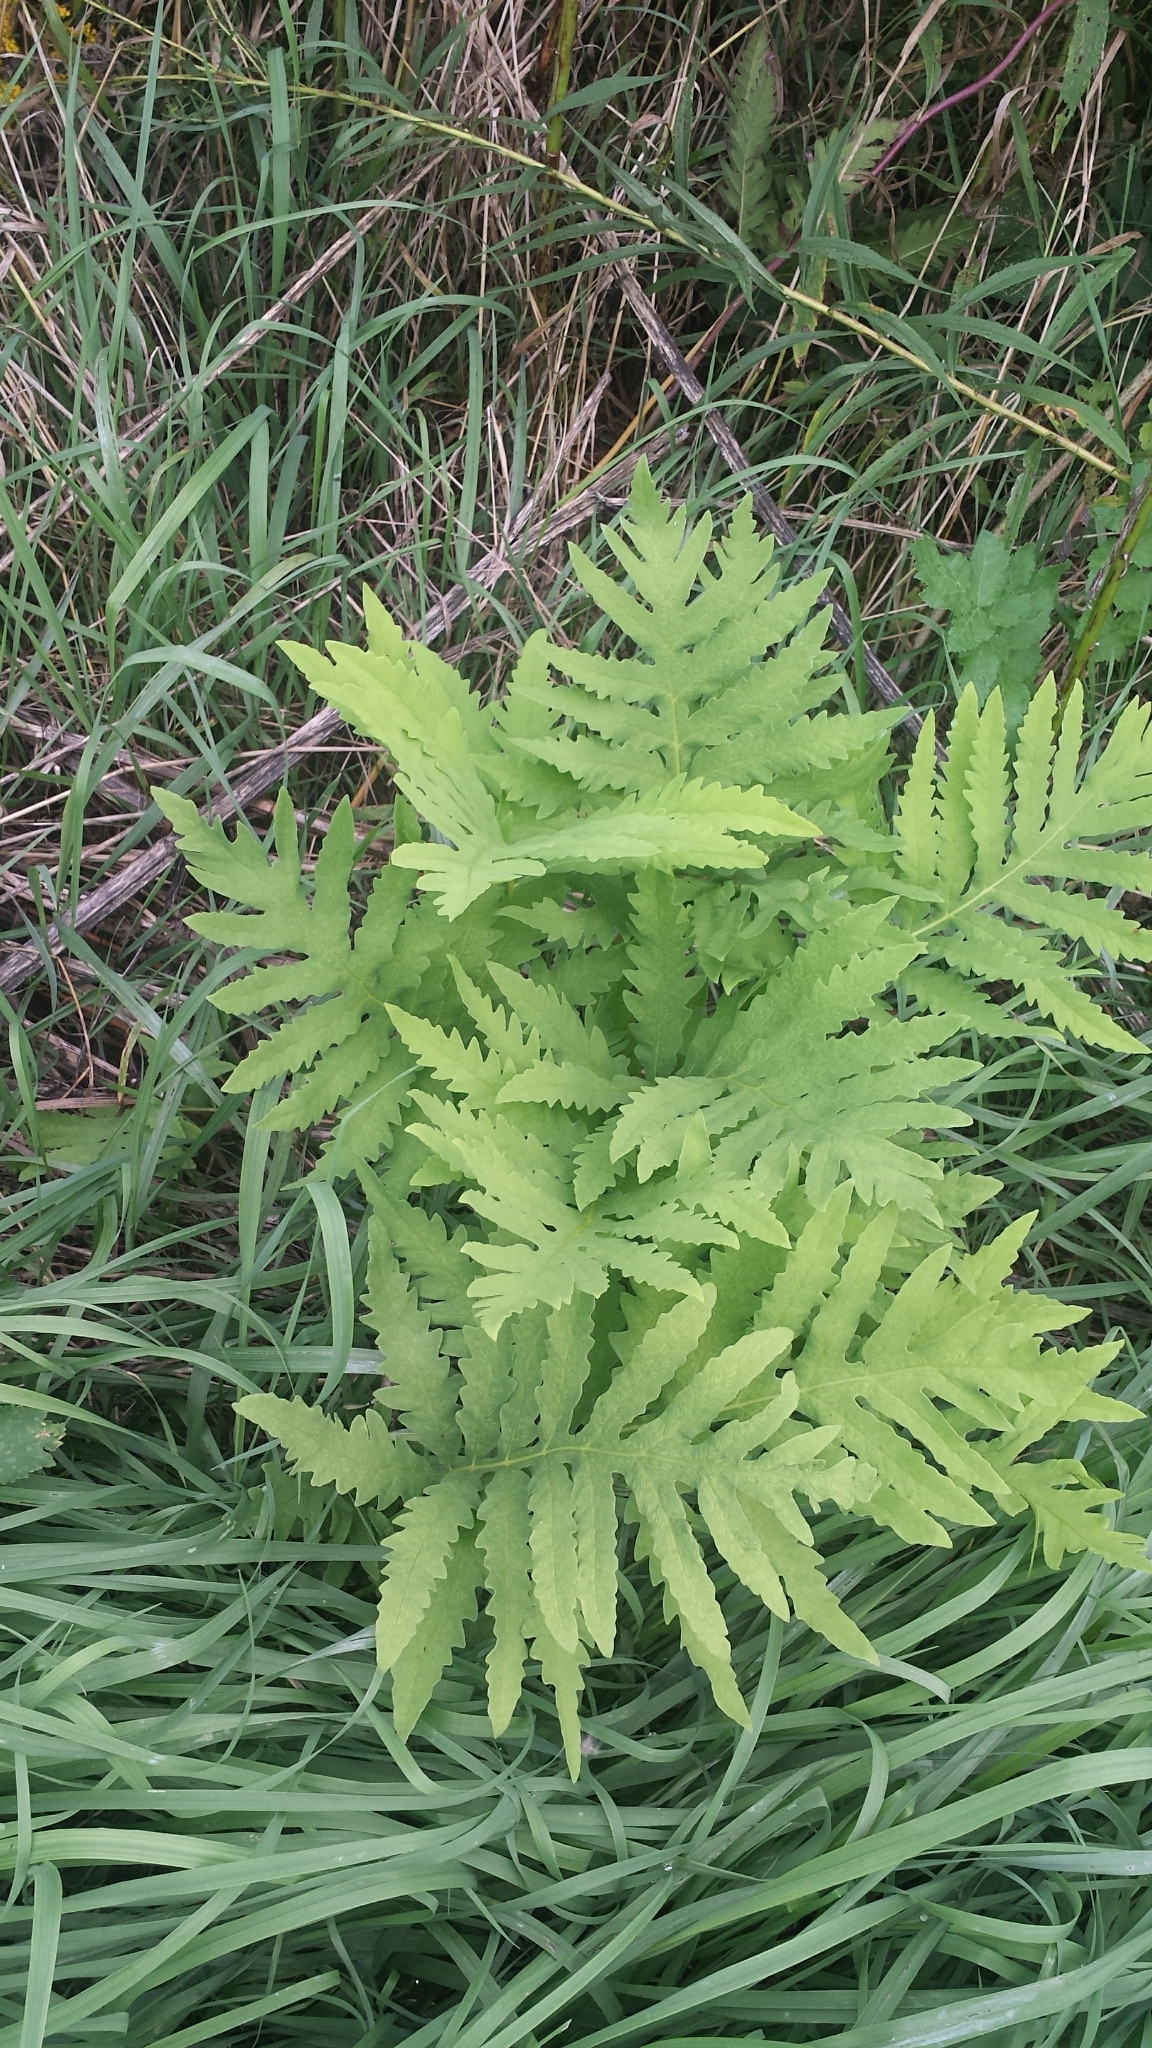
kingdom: Plantae
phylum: Tracheophyta
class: Polypodiopsida
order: Polypodiales
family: Onocleaceae
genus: Onoclea
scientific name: Onoclea sensibilis
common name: Sensitive fern
